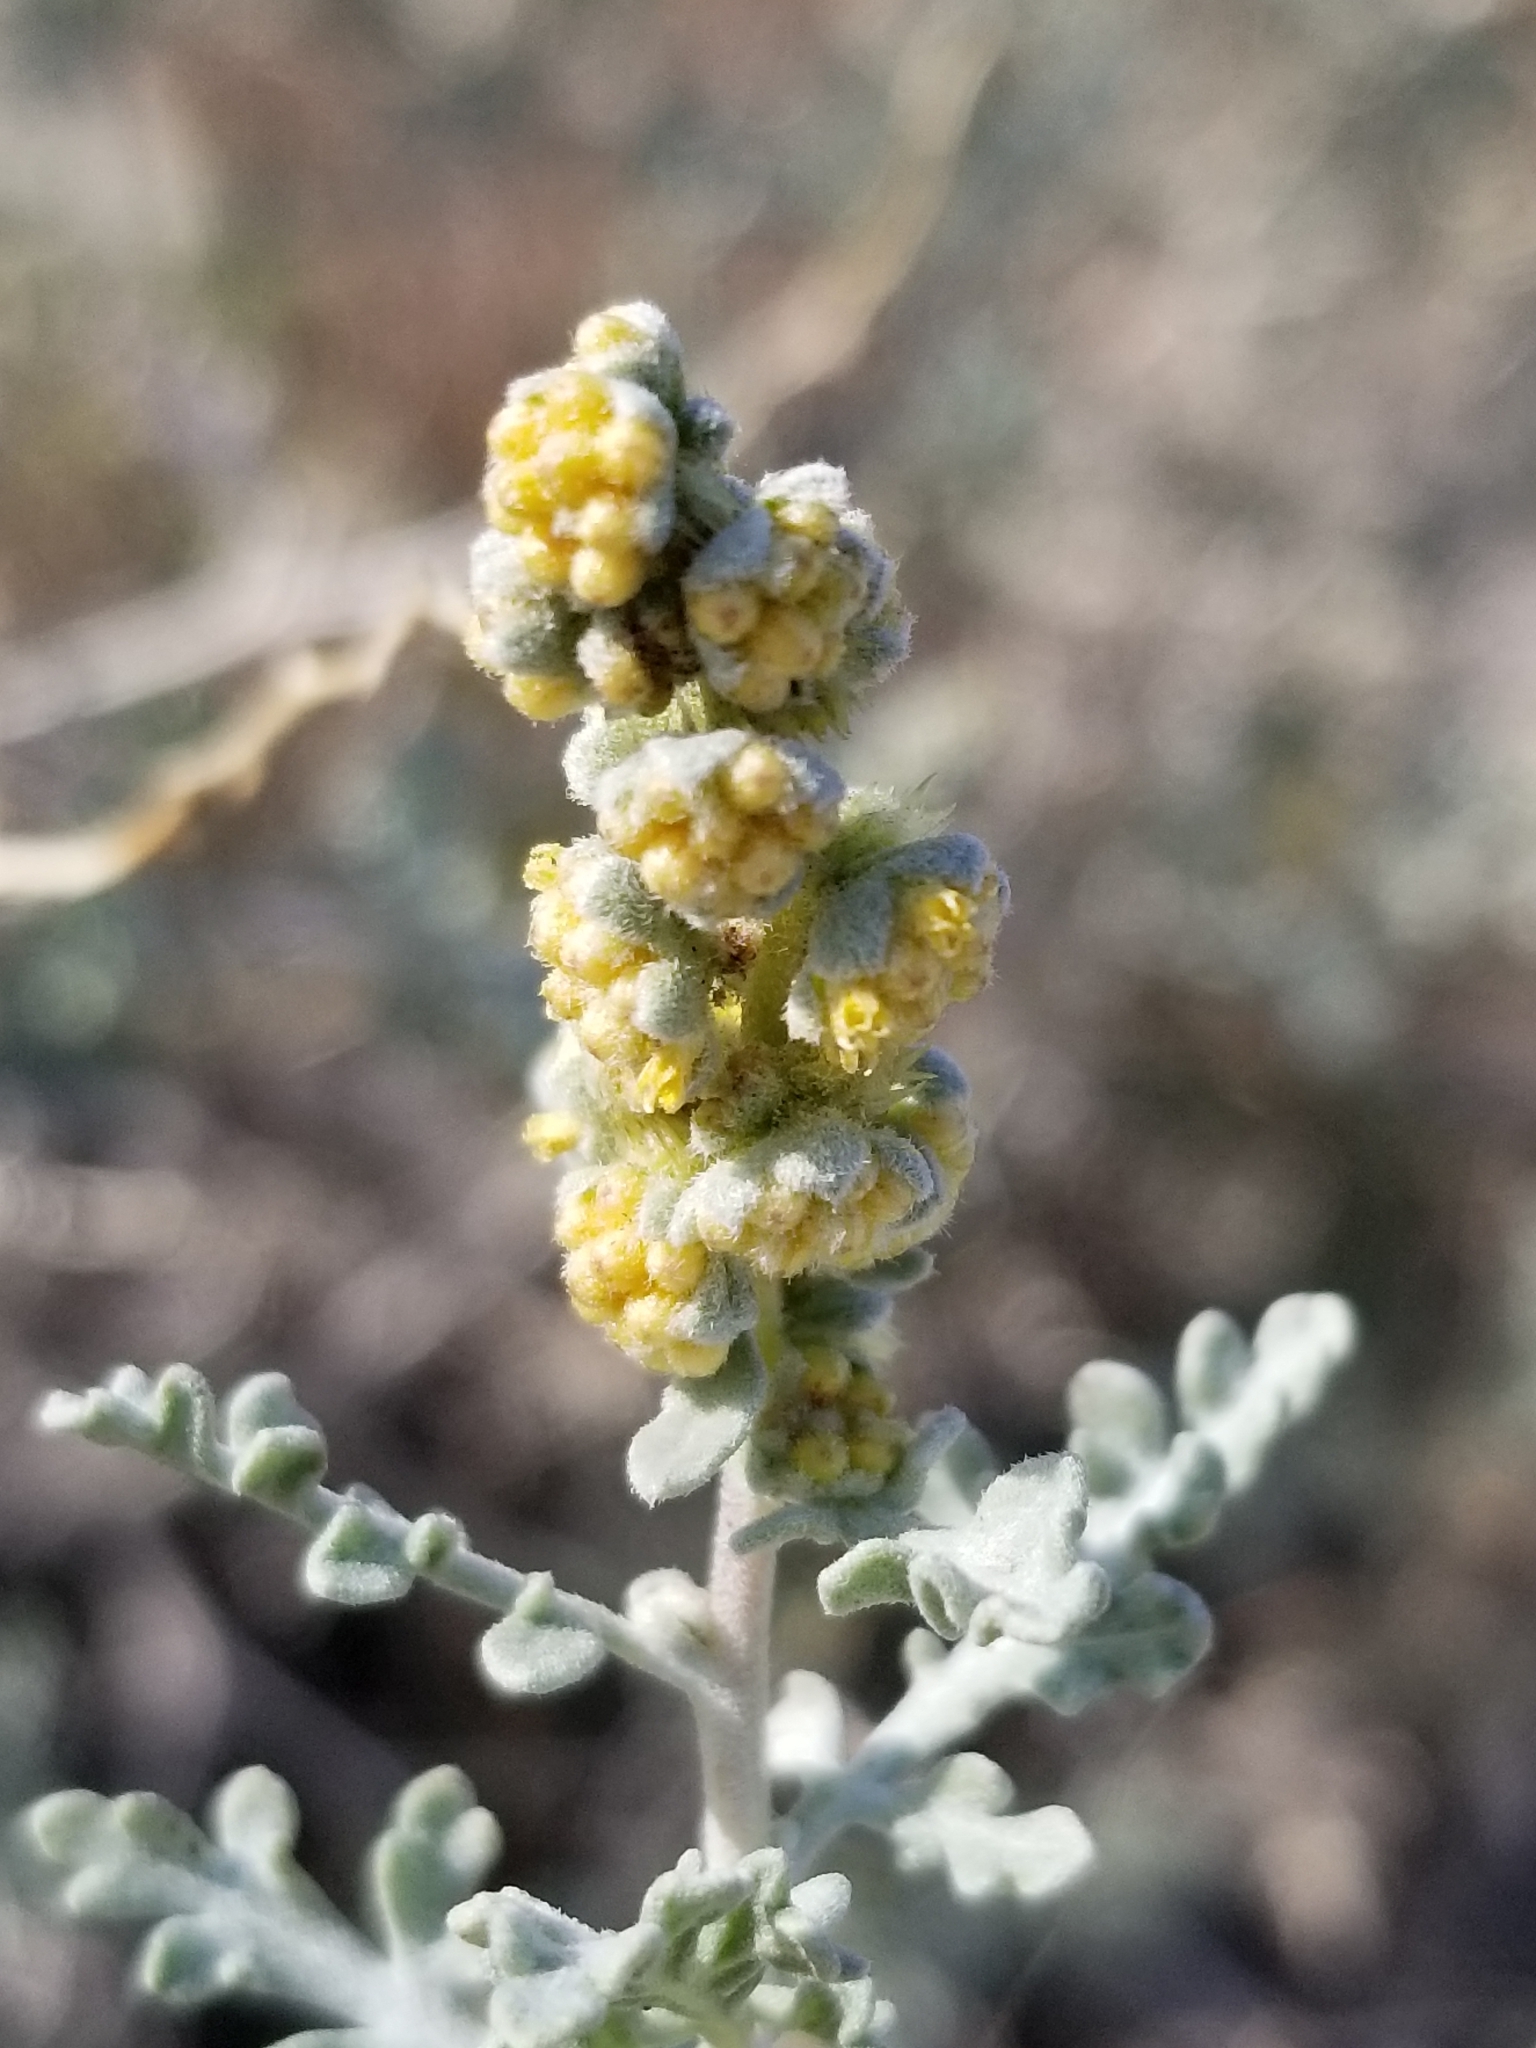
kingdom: Plantae
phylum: Tracheophyta
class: Magnoliopsida
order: Asterales
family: Asteraceae
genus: Ambrosia
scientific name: Ambrosia dumosa
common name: Bur-sage
